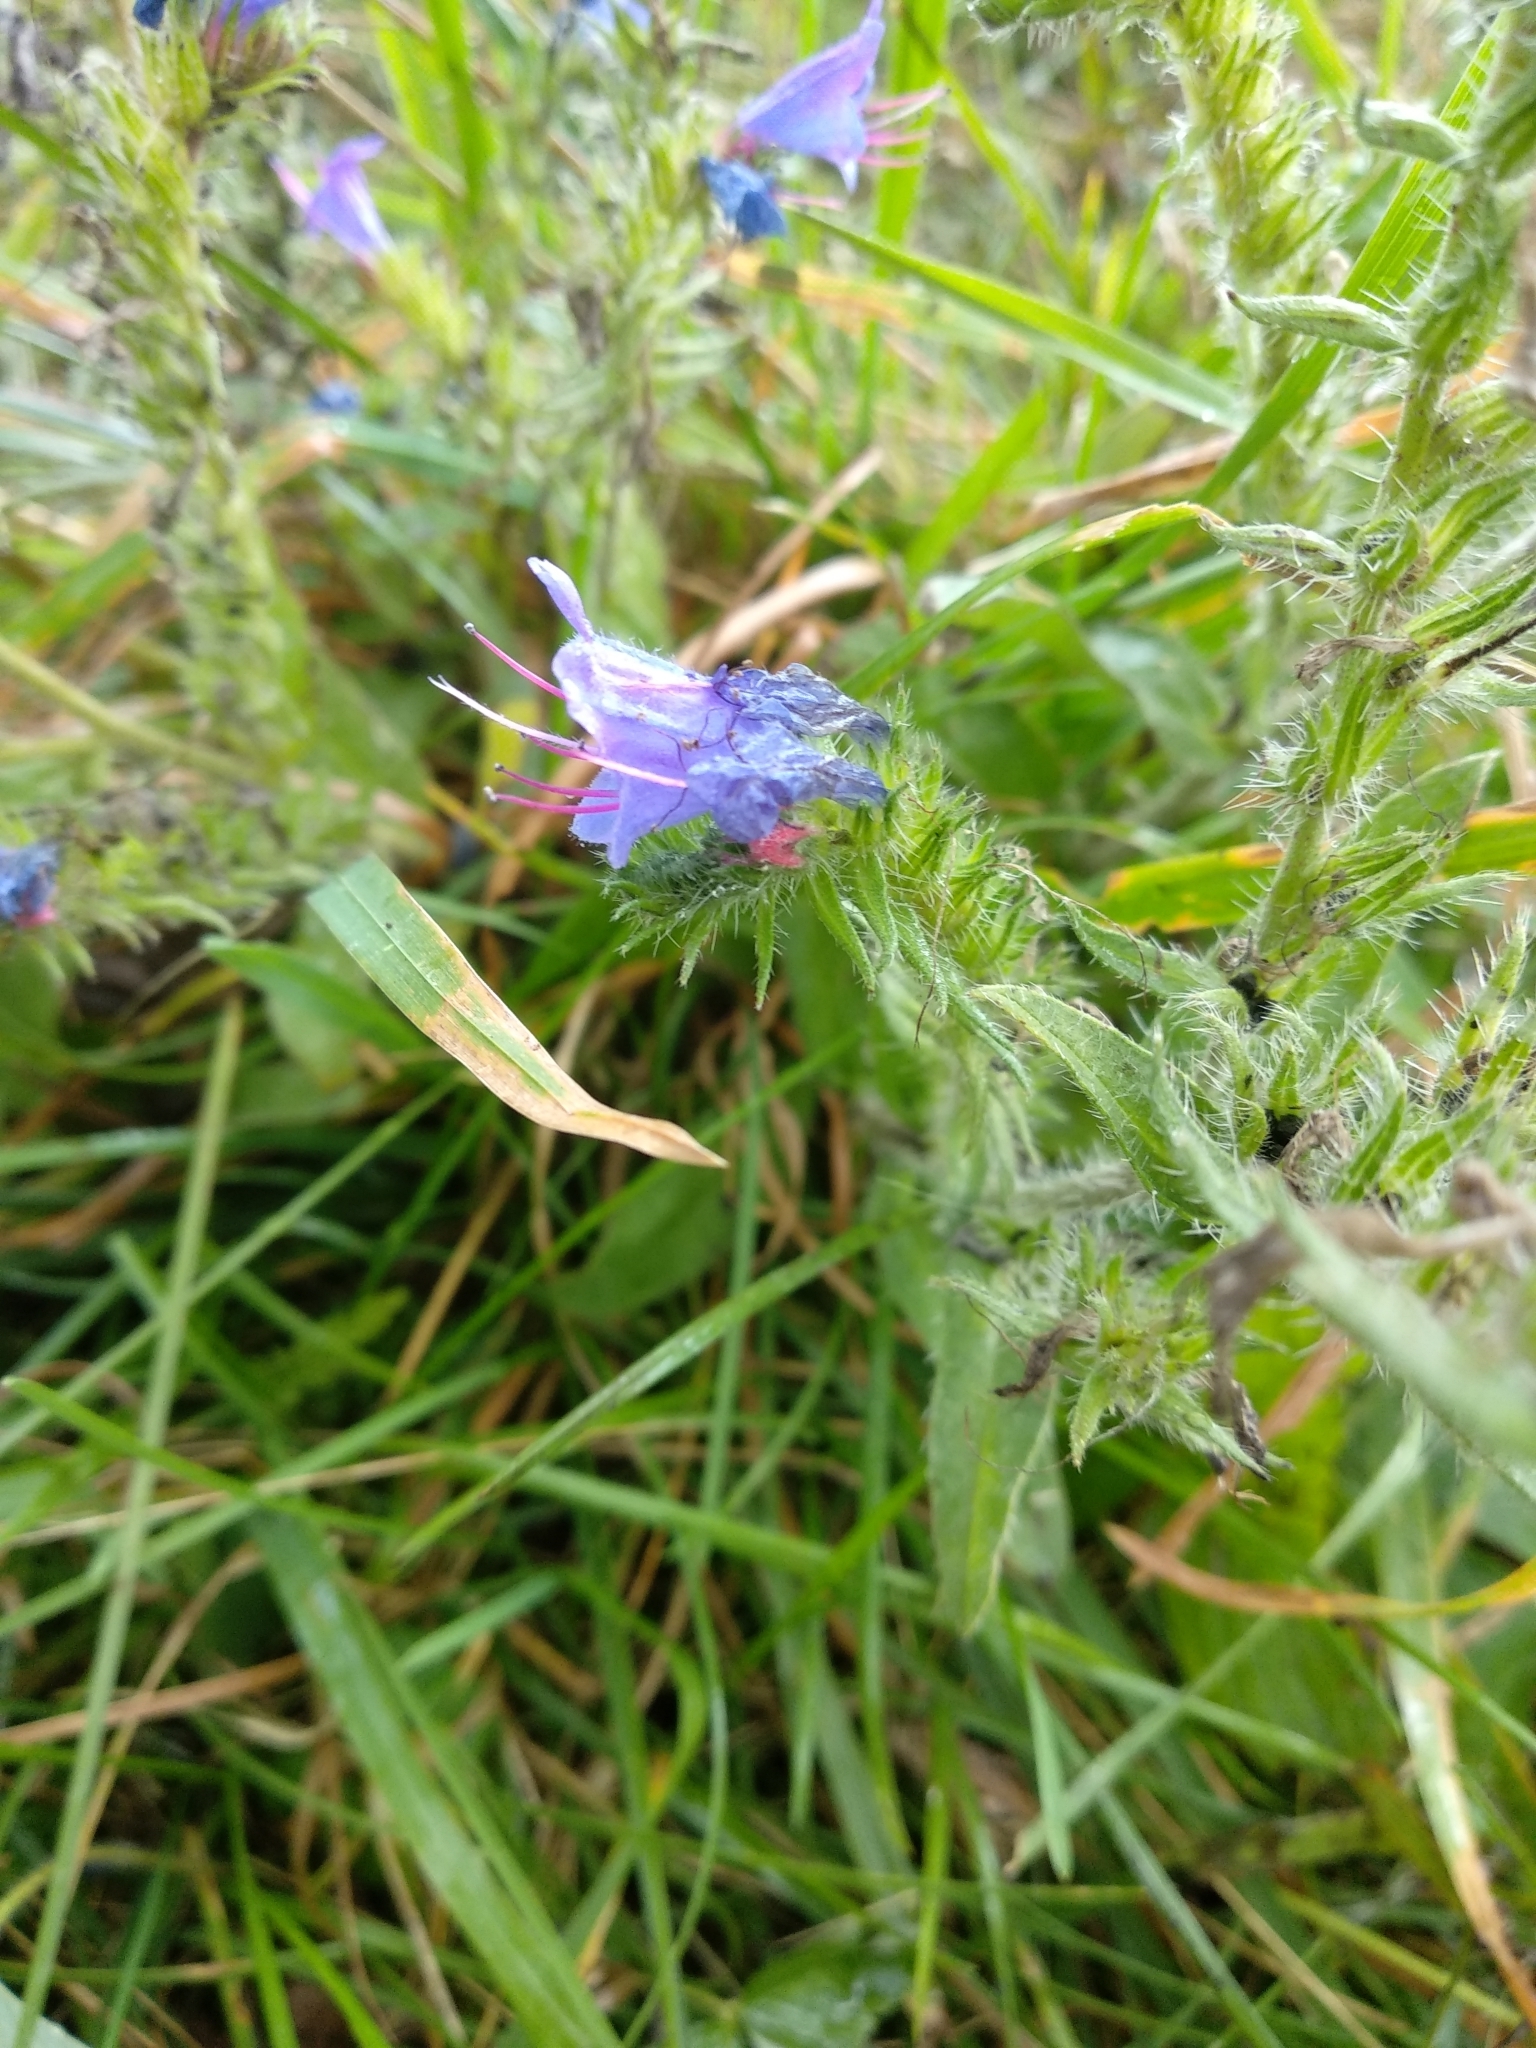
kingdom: Plantae
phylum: Tracheophyta
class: Magnoliopsida
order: Boraginales
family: Boraginaceae
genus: Echium
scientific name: Echium vulgare
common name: Common viper's bugloss
